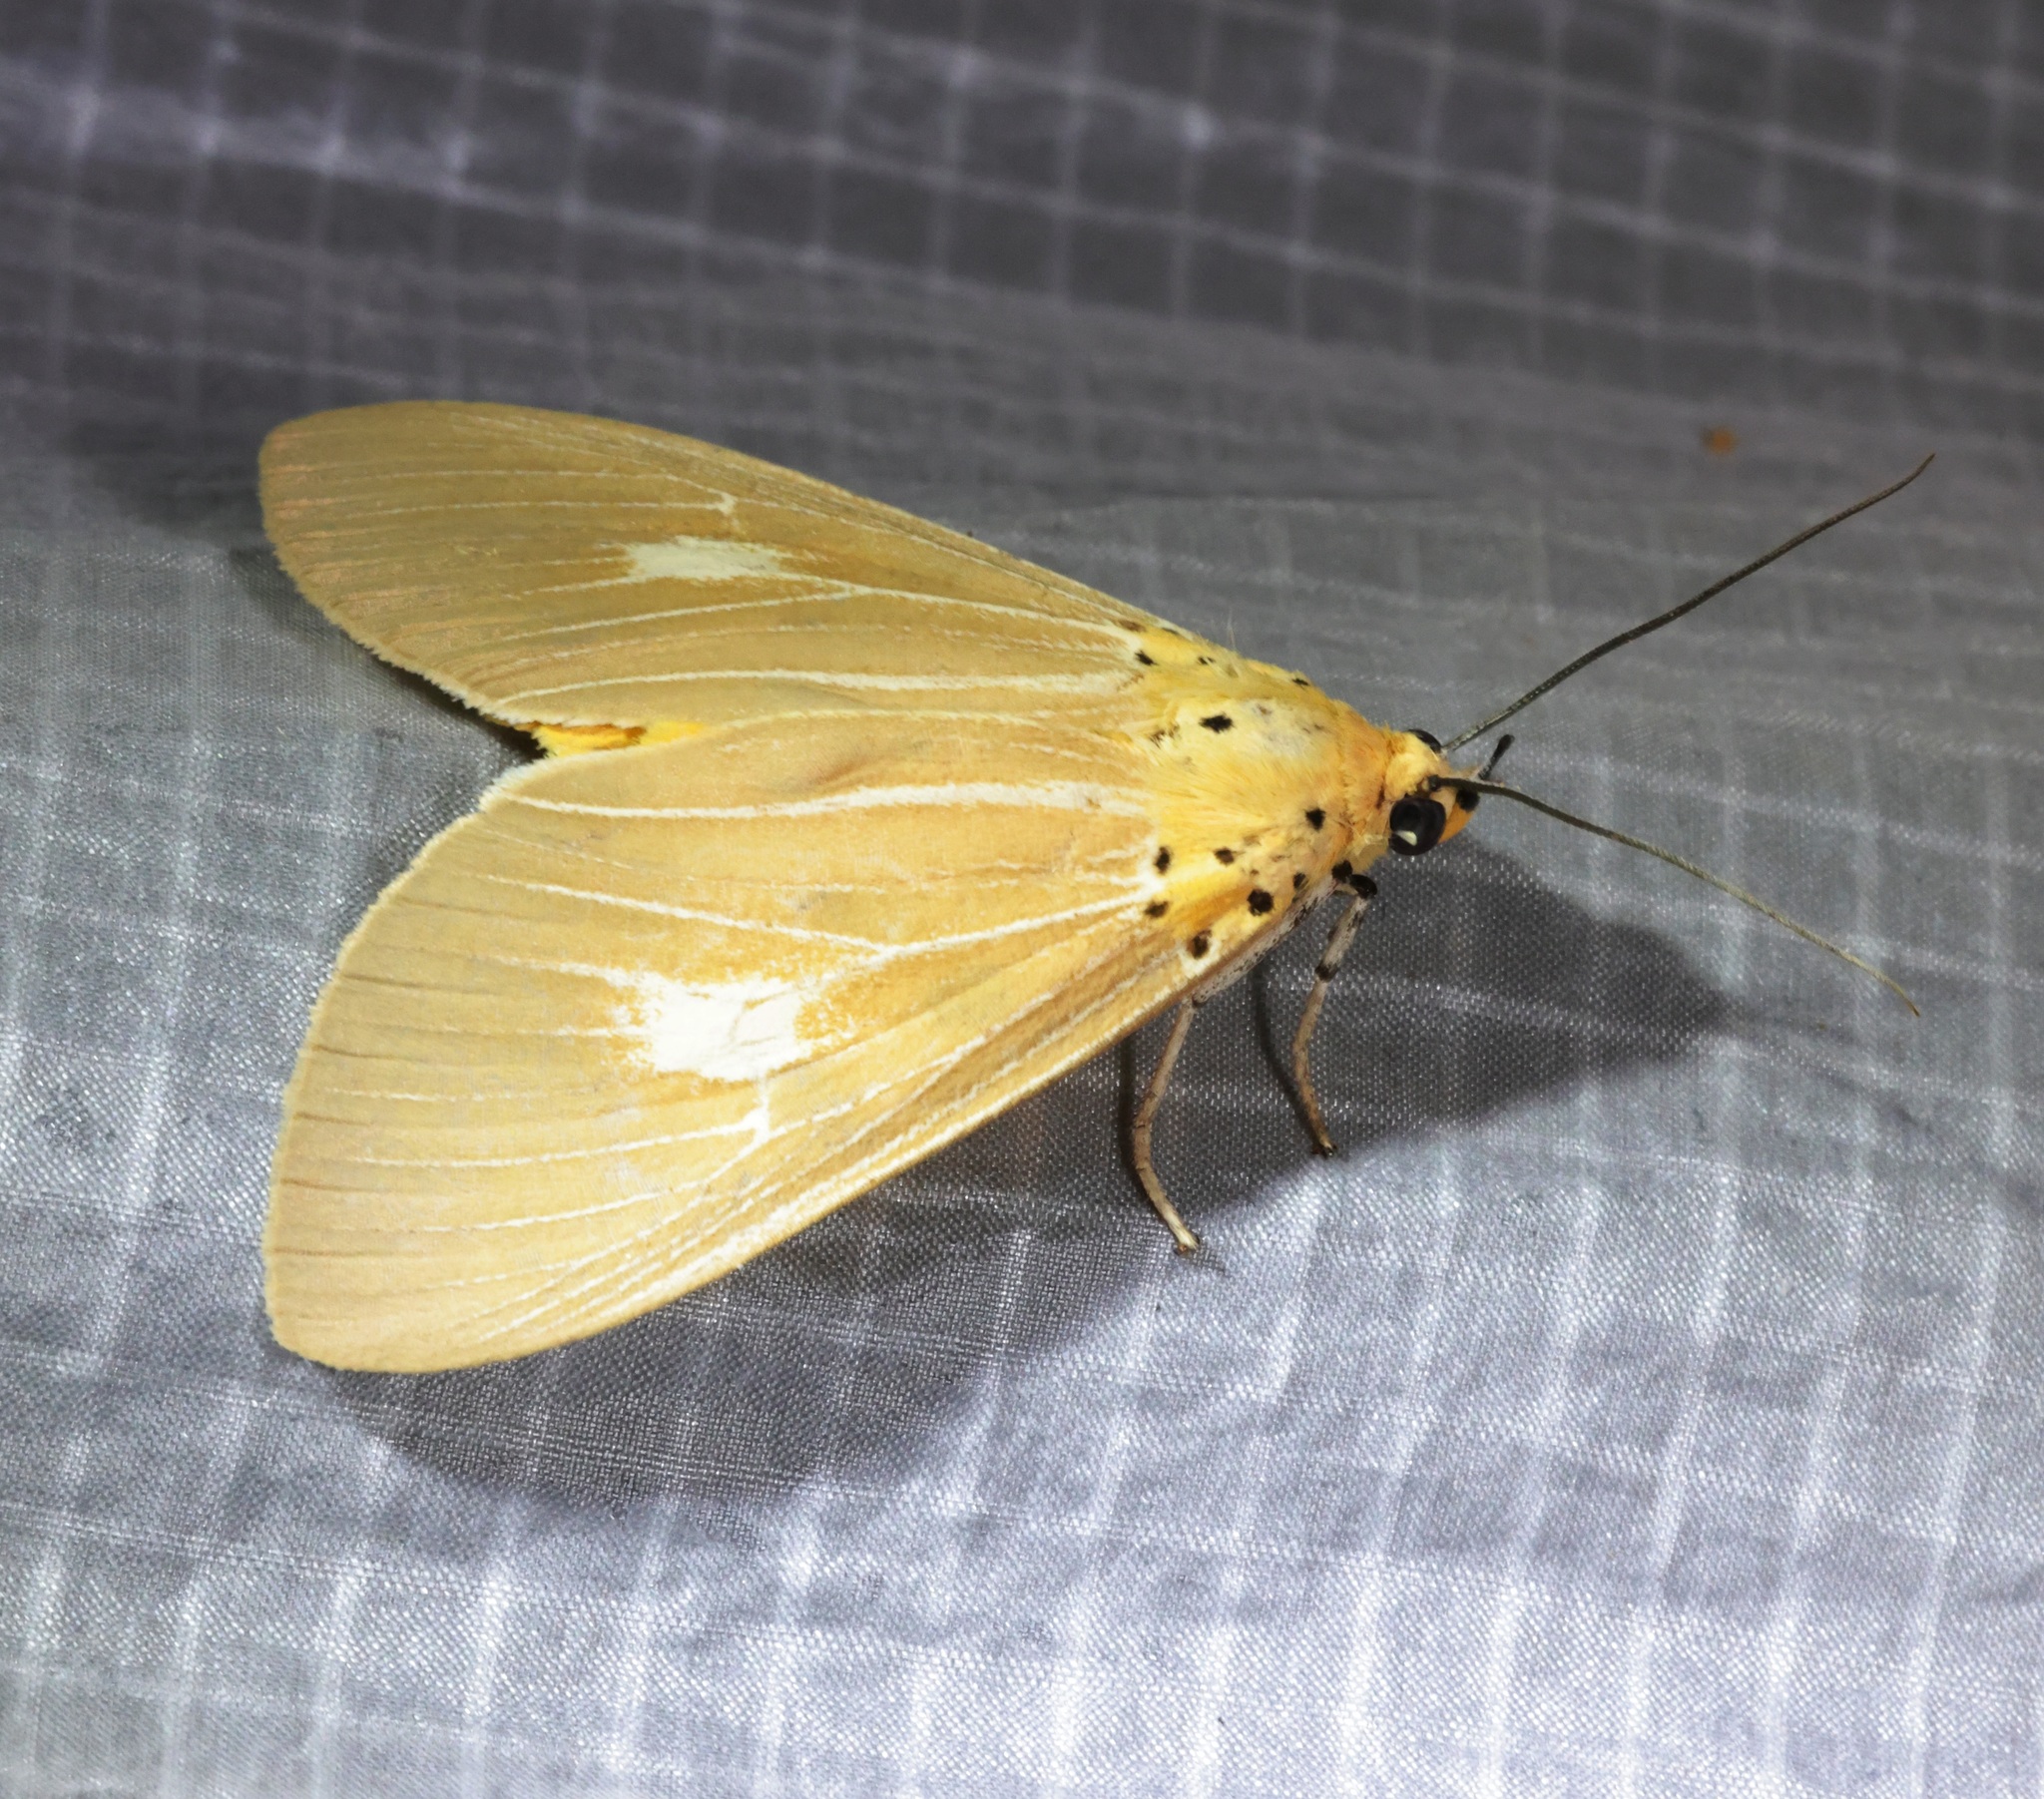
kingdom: Animalia
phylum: Arthropoda
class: Insecta
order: Lepidoptera
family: Erebidae
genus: Asota
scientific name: Asota plaginota
